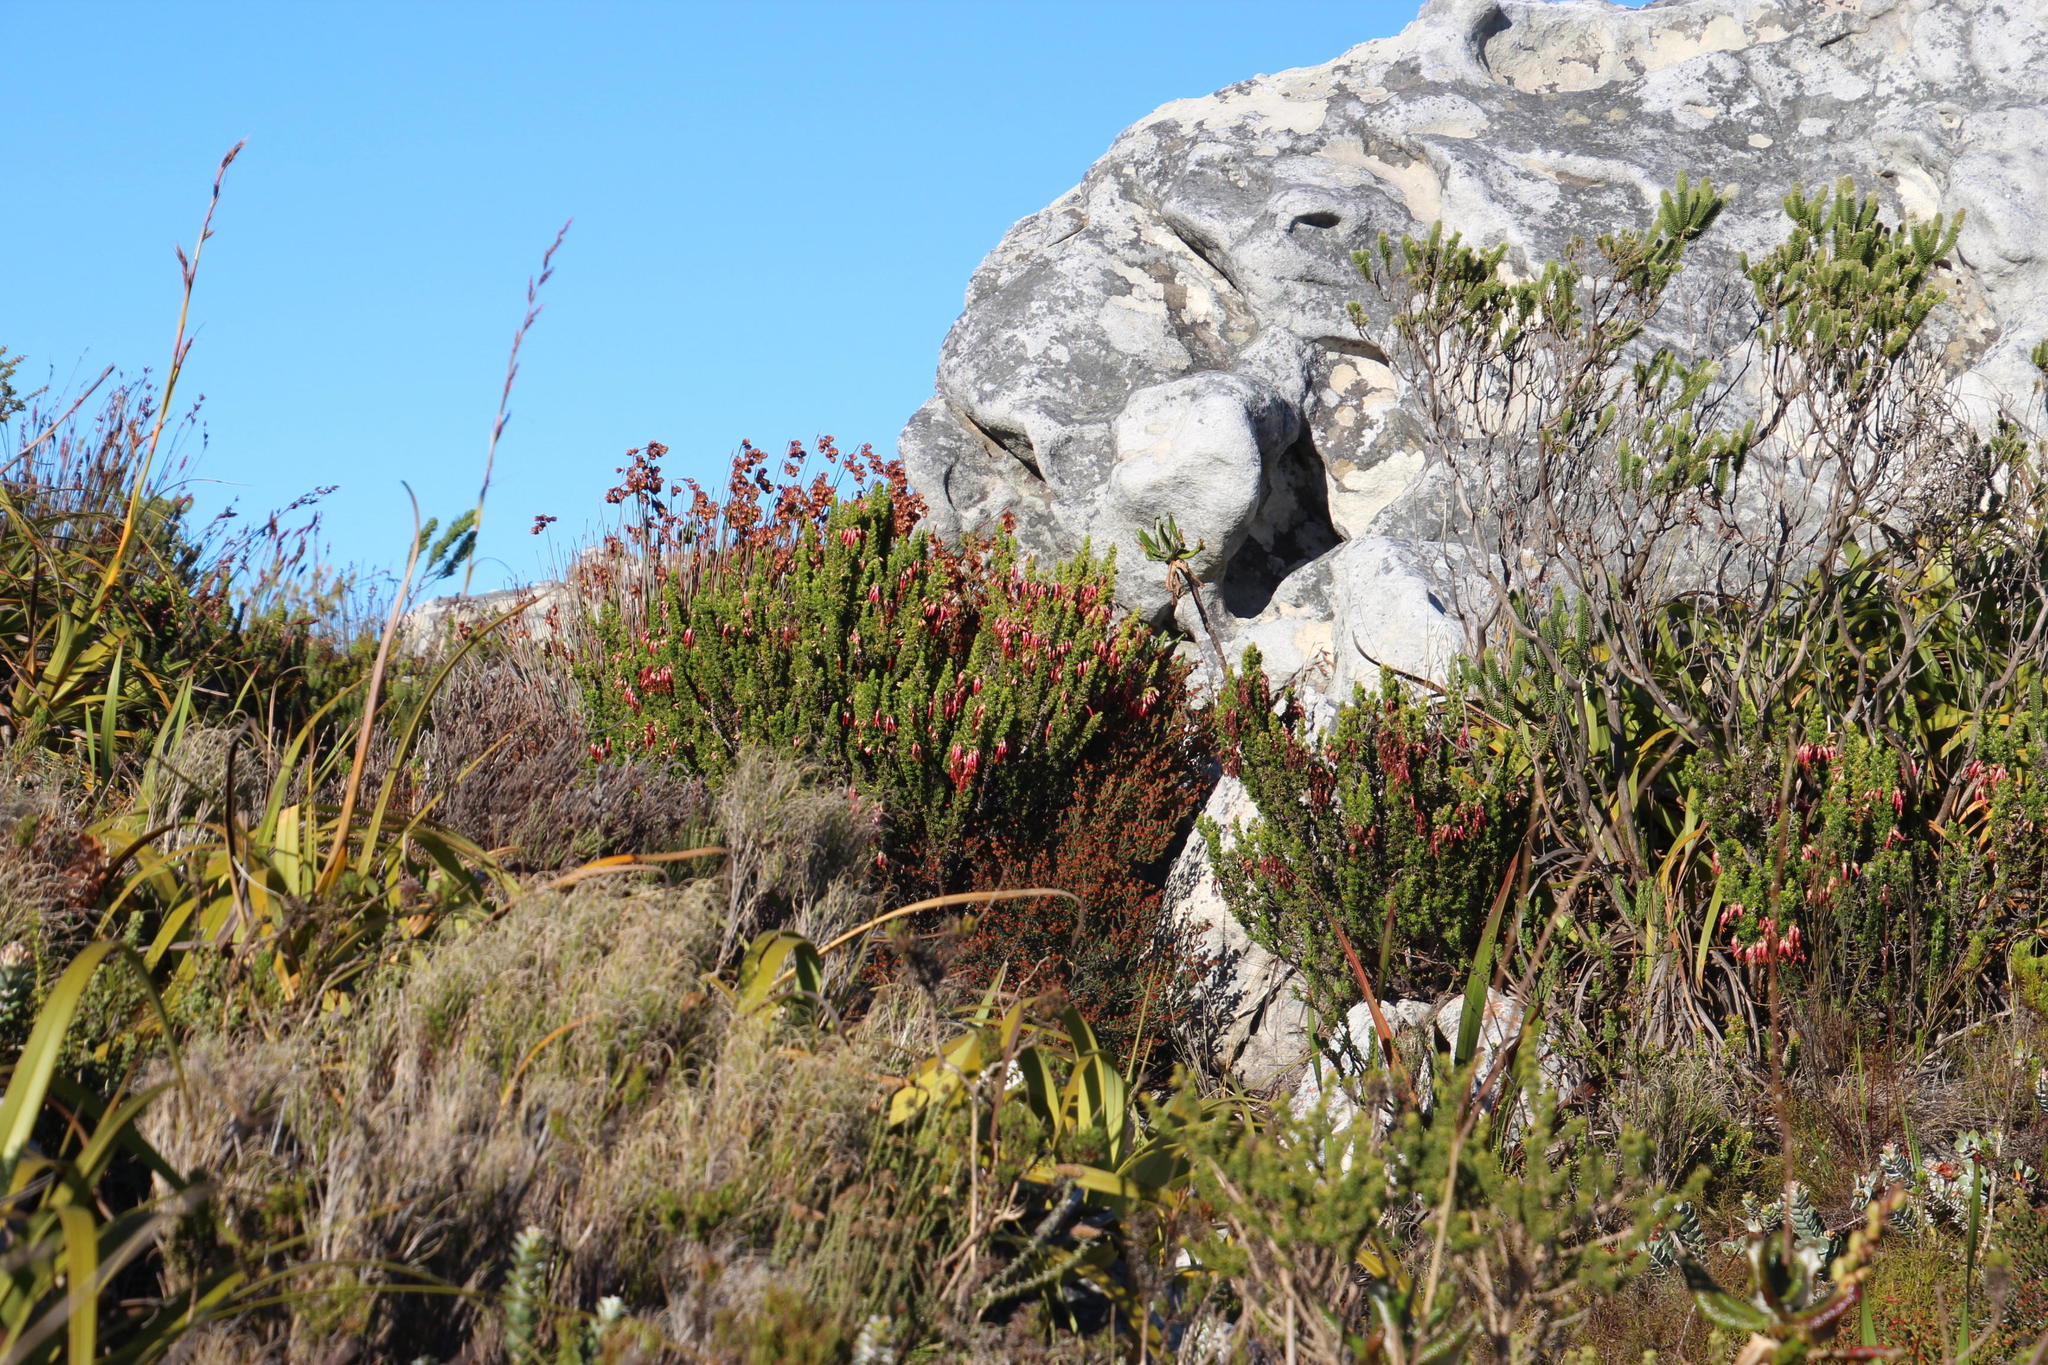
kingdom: Plantae
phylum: Tracheophyta
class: Magnoliopsida
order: Ericales
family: Ericaceae
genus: Erica
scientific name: Erica coccinea
